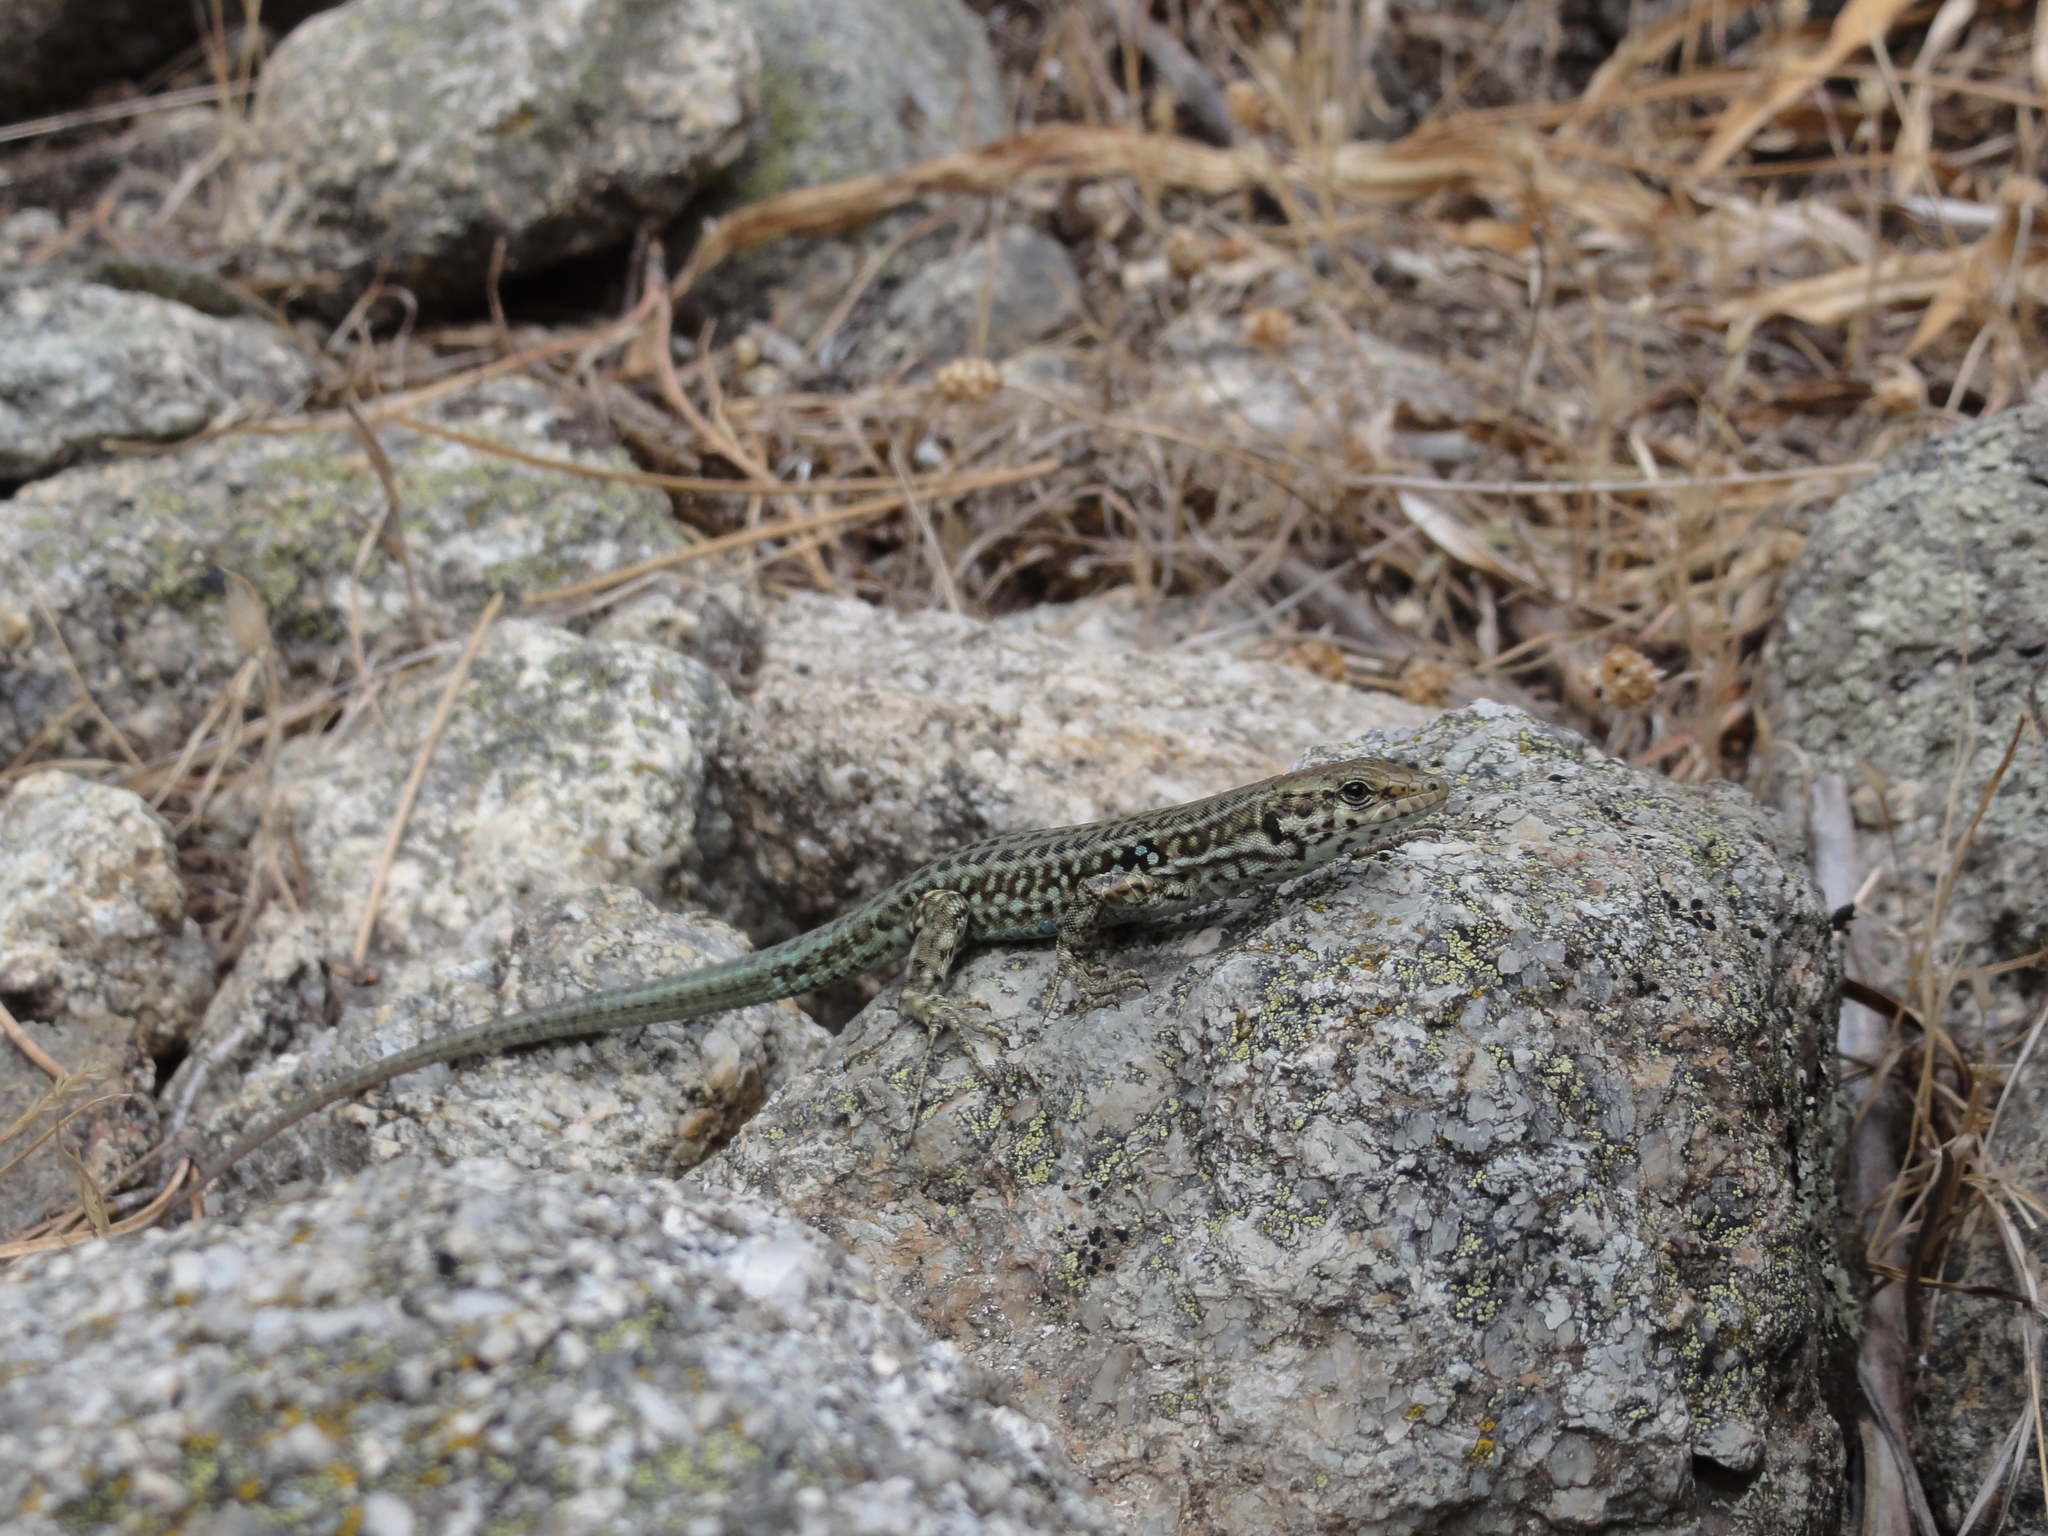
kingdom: Animalia
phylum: Chordata
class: Squamata
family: Lacertidae
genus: Podarcis
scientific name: Podarcis tiliguerta
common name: Tyrrhenian wall lizard
